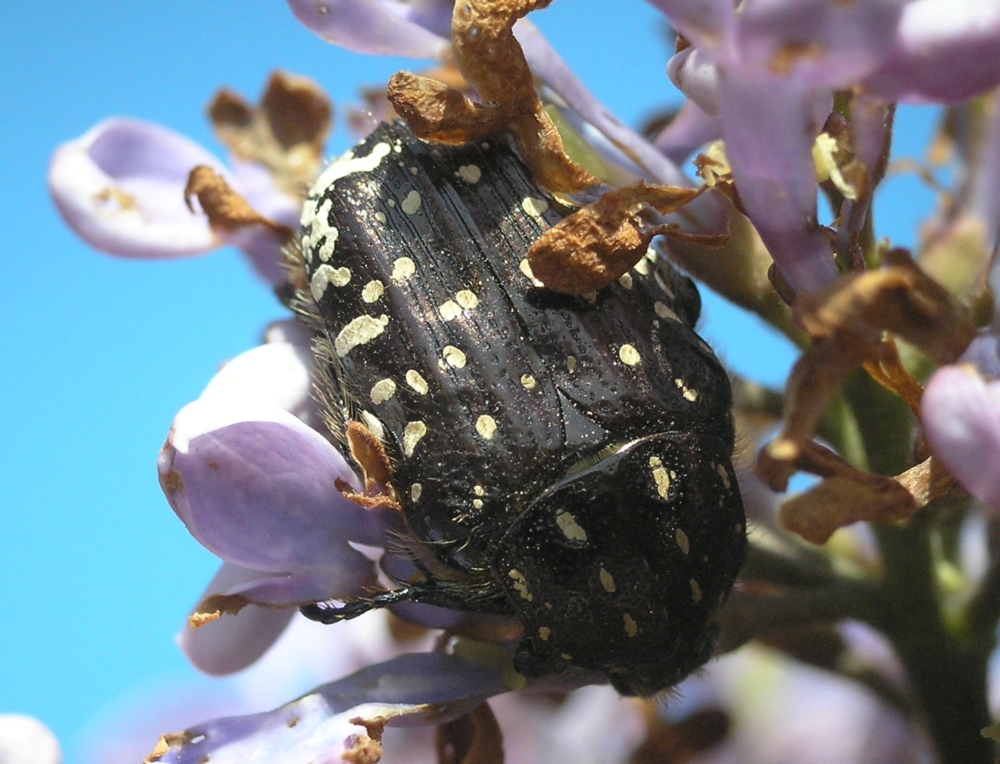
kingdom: Animalia
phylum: Arthropoda
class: Insecta
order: Coleoptera
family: Scarabaeidae
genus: Oxythyrea
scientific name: Oxythyrea funesta
